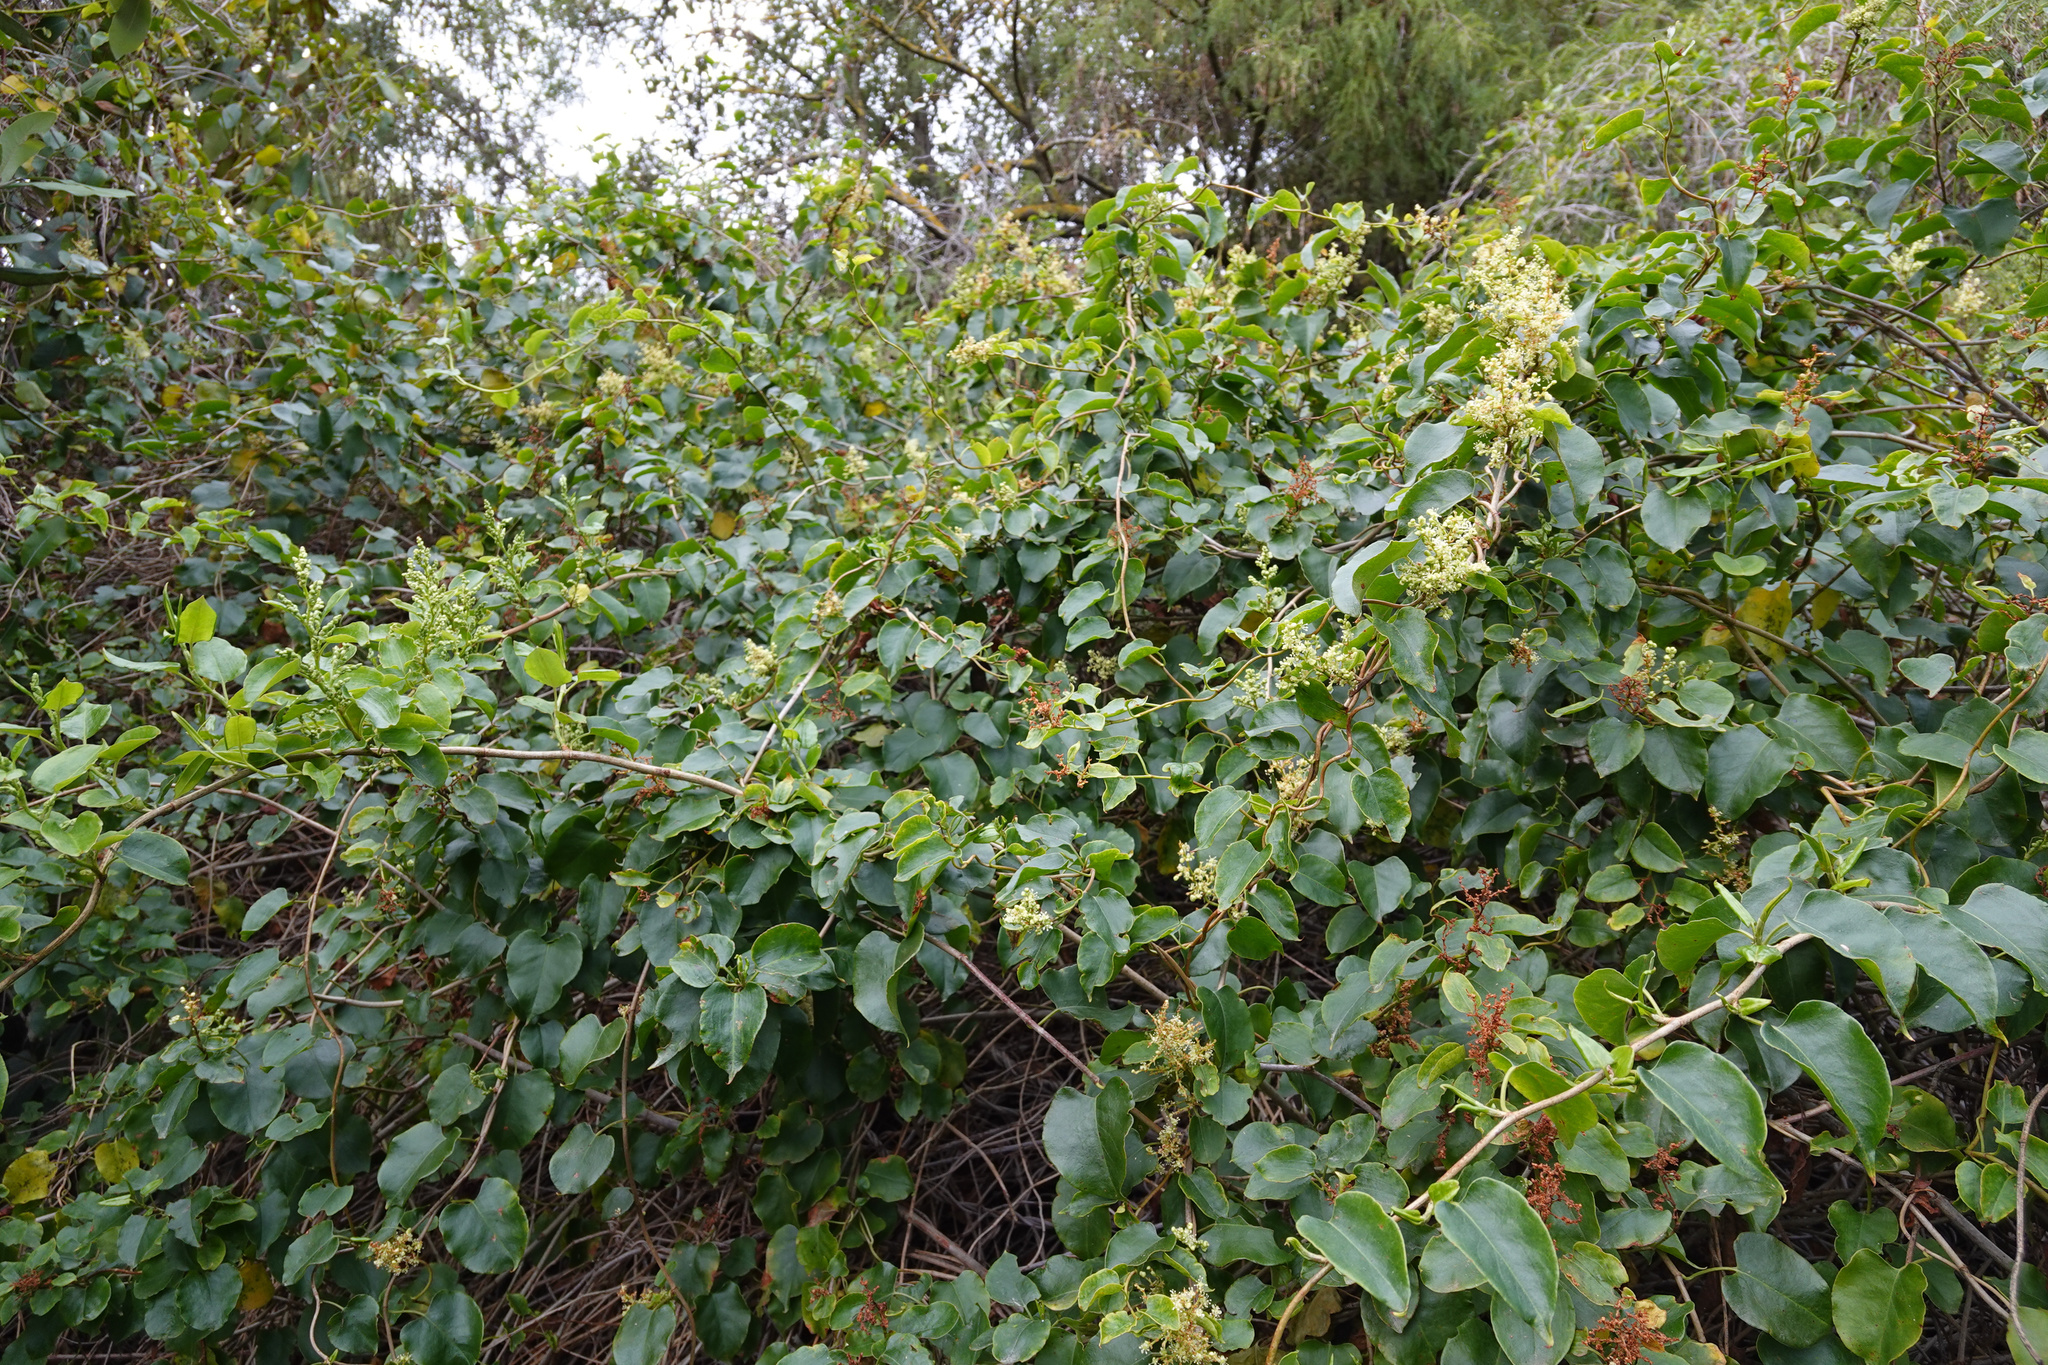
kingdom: Plantae
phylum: Tracheophyta
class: Magnoliopsida
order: Caryophyllales
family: Polygonaceae
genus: Muehlenbeckia
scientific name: Muehlenbeckia australis
